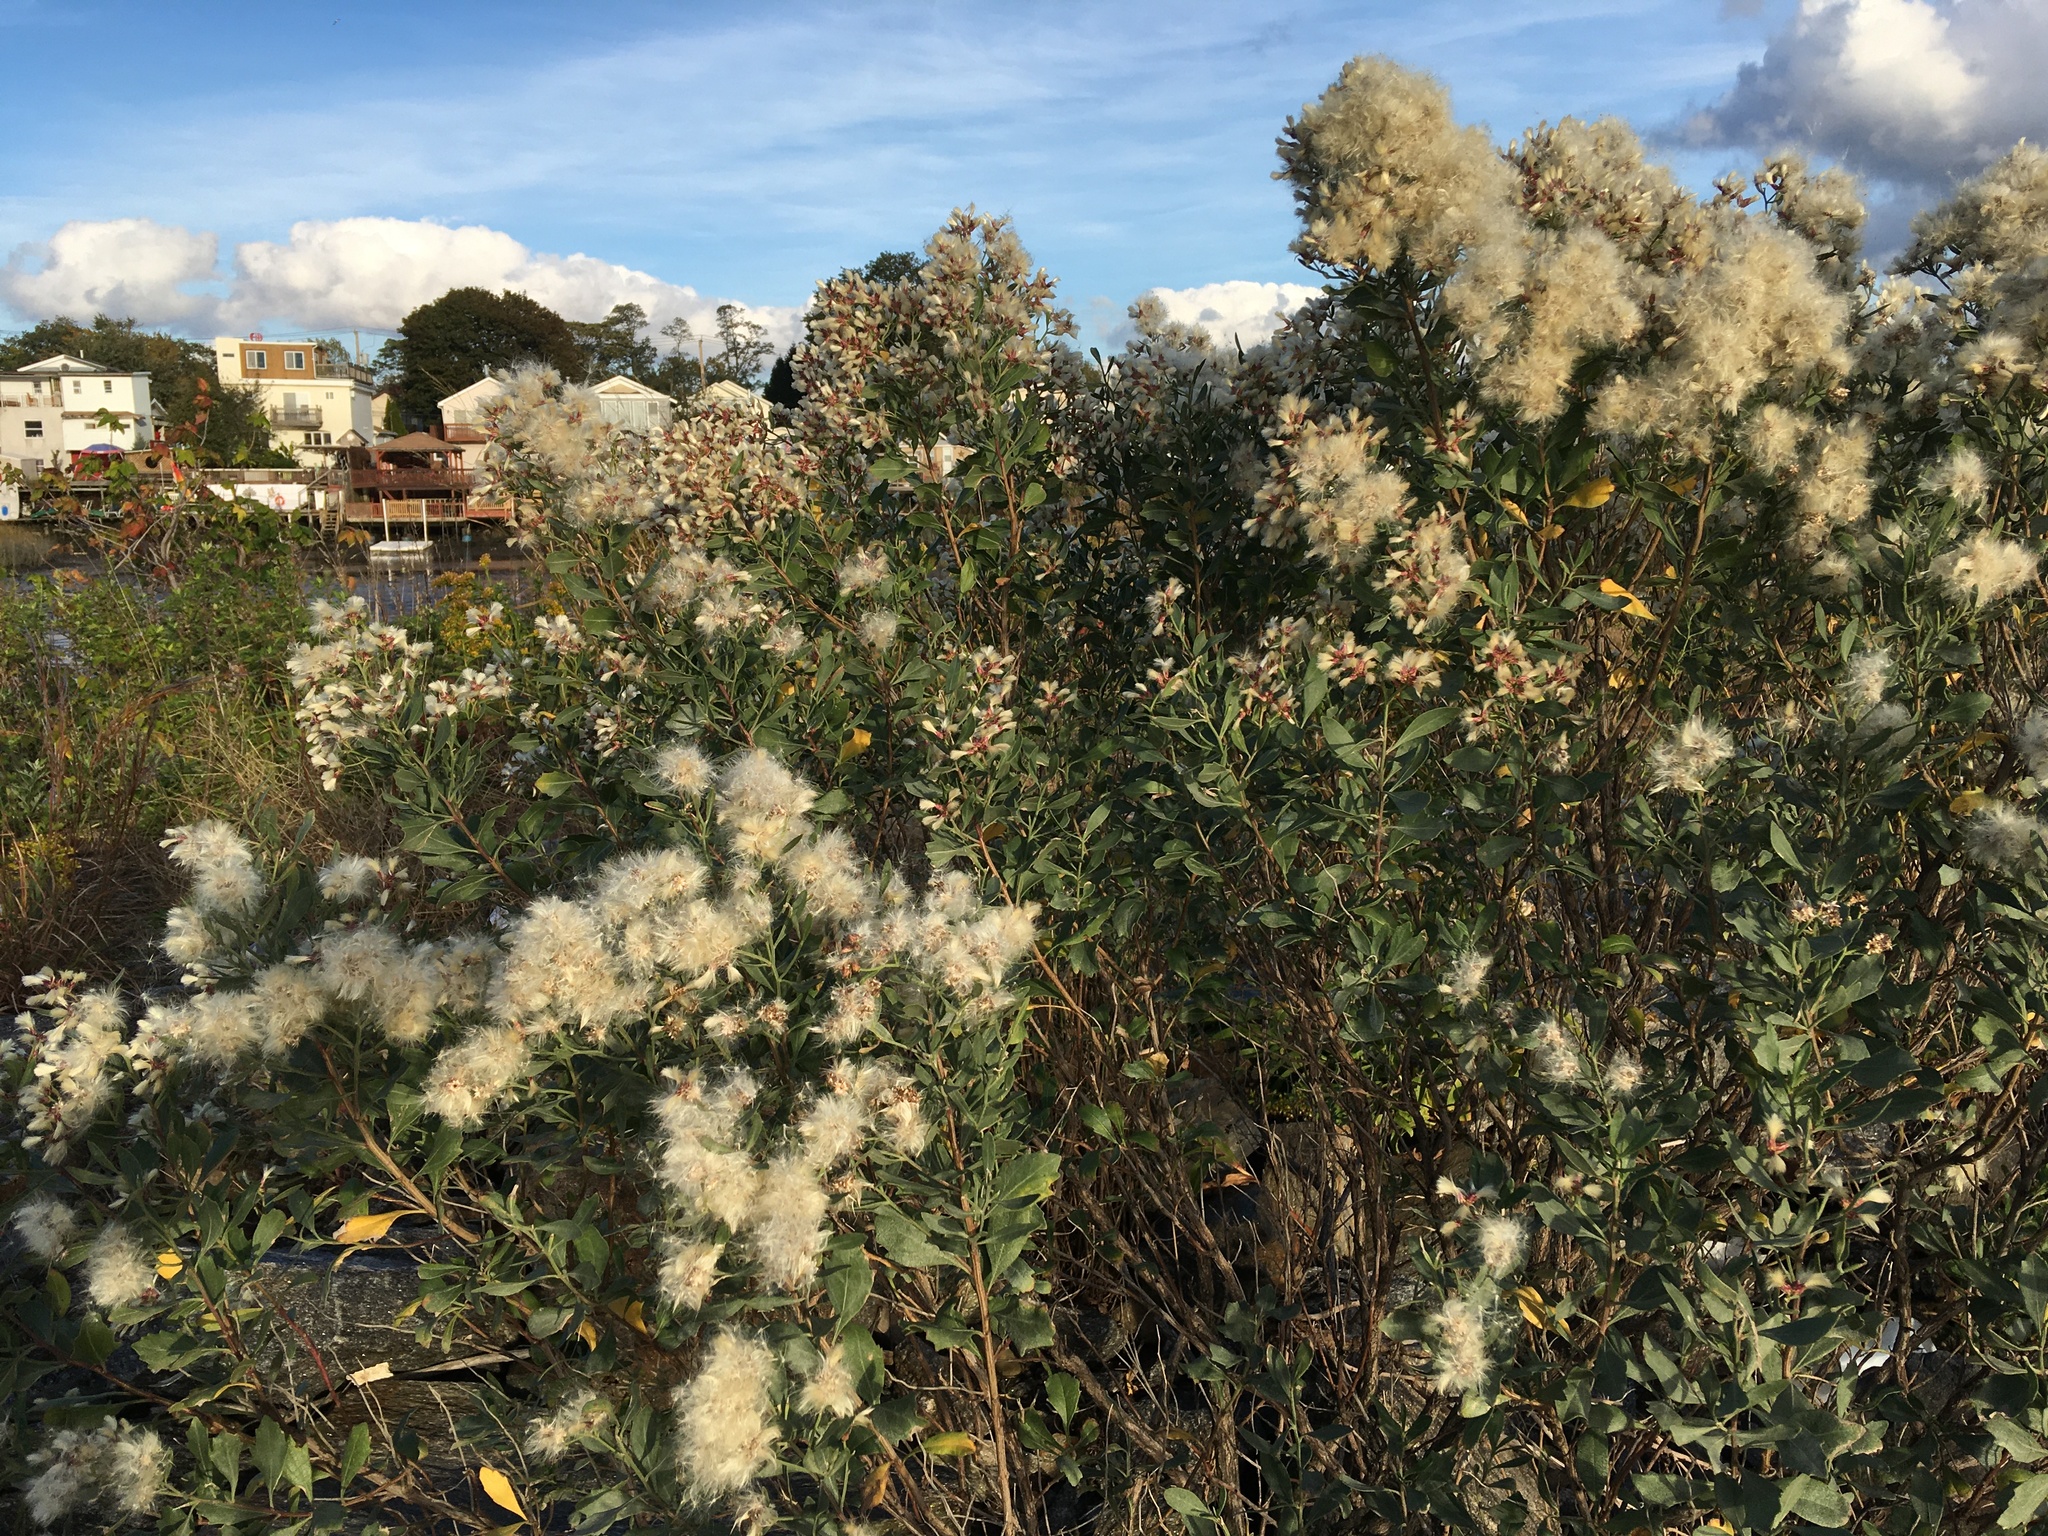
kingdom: Plantae
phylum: Tracheophyta
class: Magnoliopsida
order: Asterales
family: Asteraceae
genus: Baccharis
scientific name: Baccharis halimifolia
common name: Eastern baccharis
